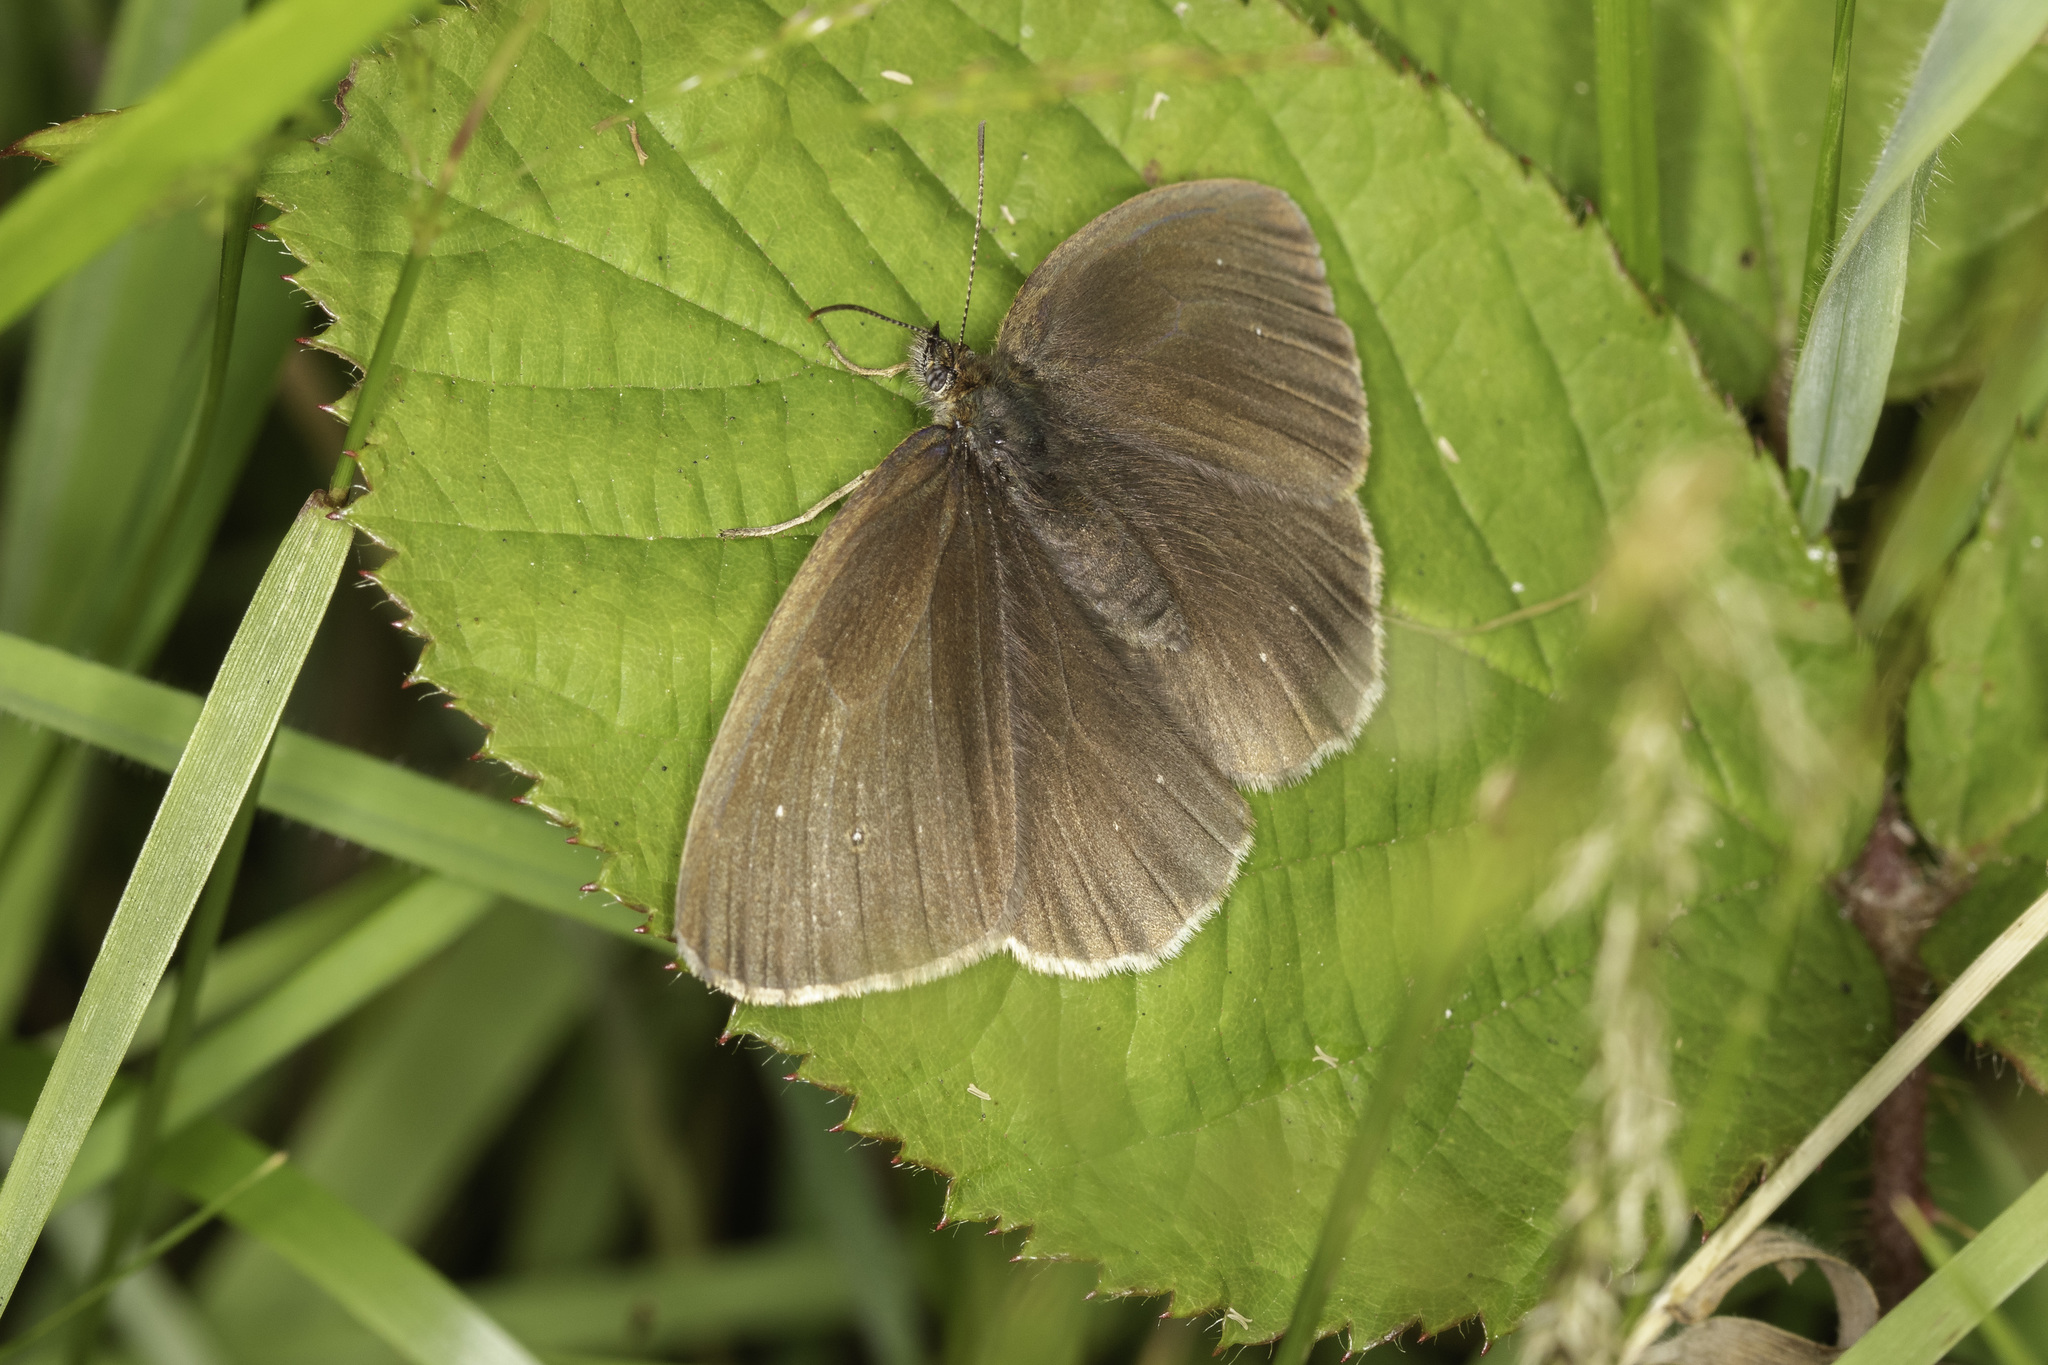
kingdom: Animalia
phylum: Arthropoda
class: Insecta
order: Lepidoptera
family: Nymphalidae
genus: Aphantopus
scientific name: Aphantopus hyperantus
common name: Ringlet
